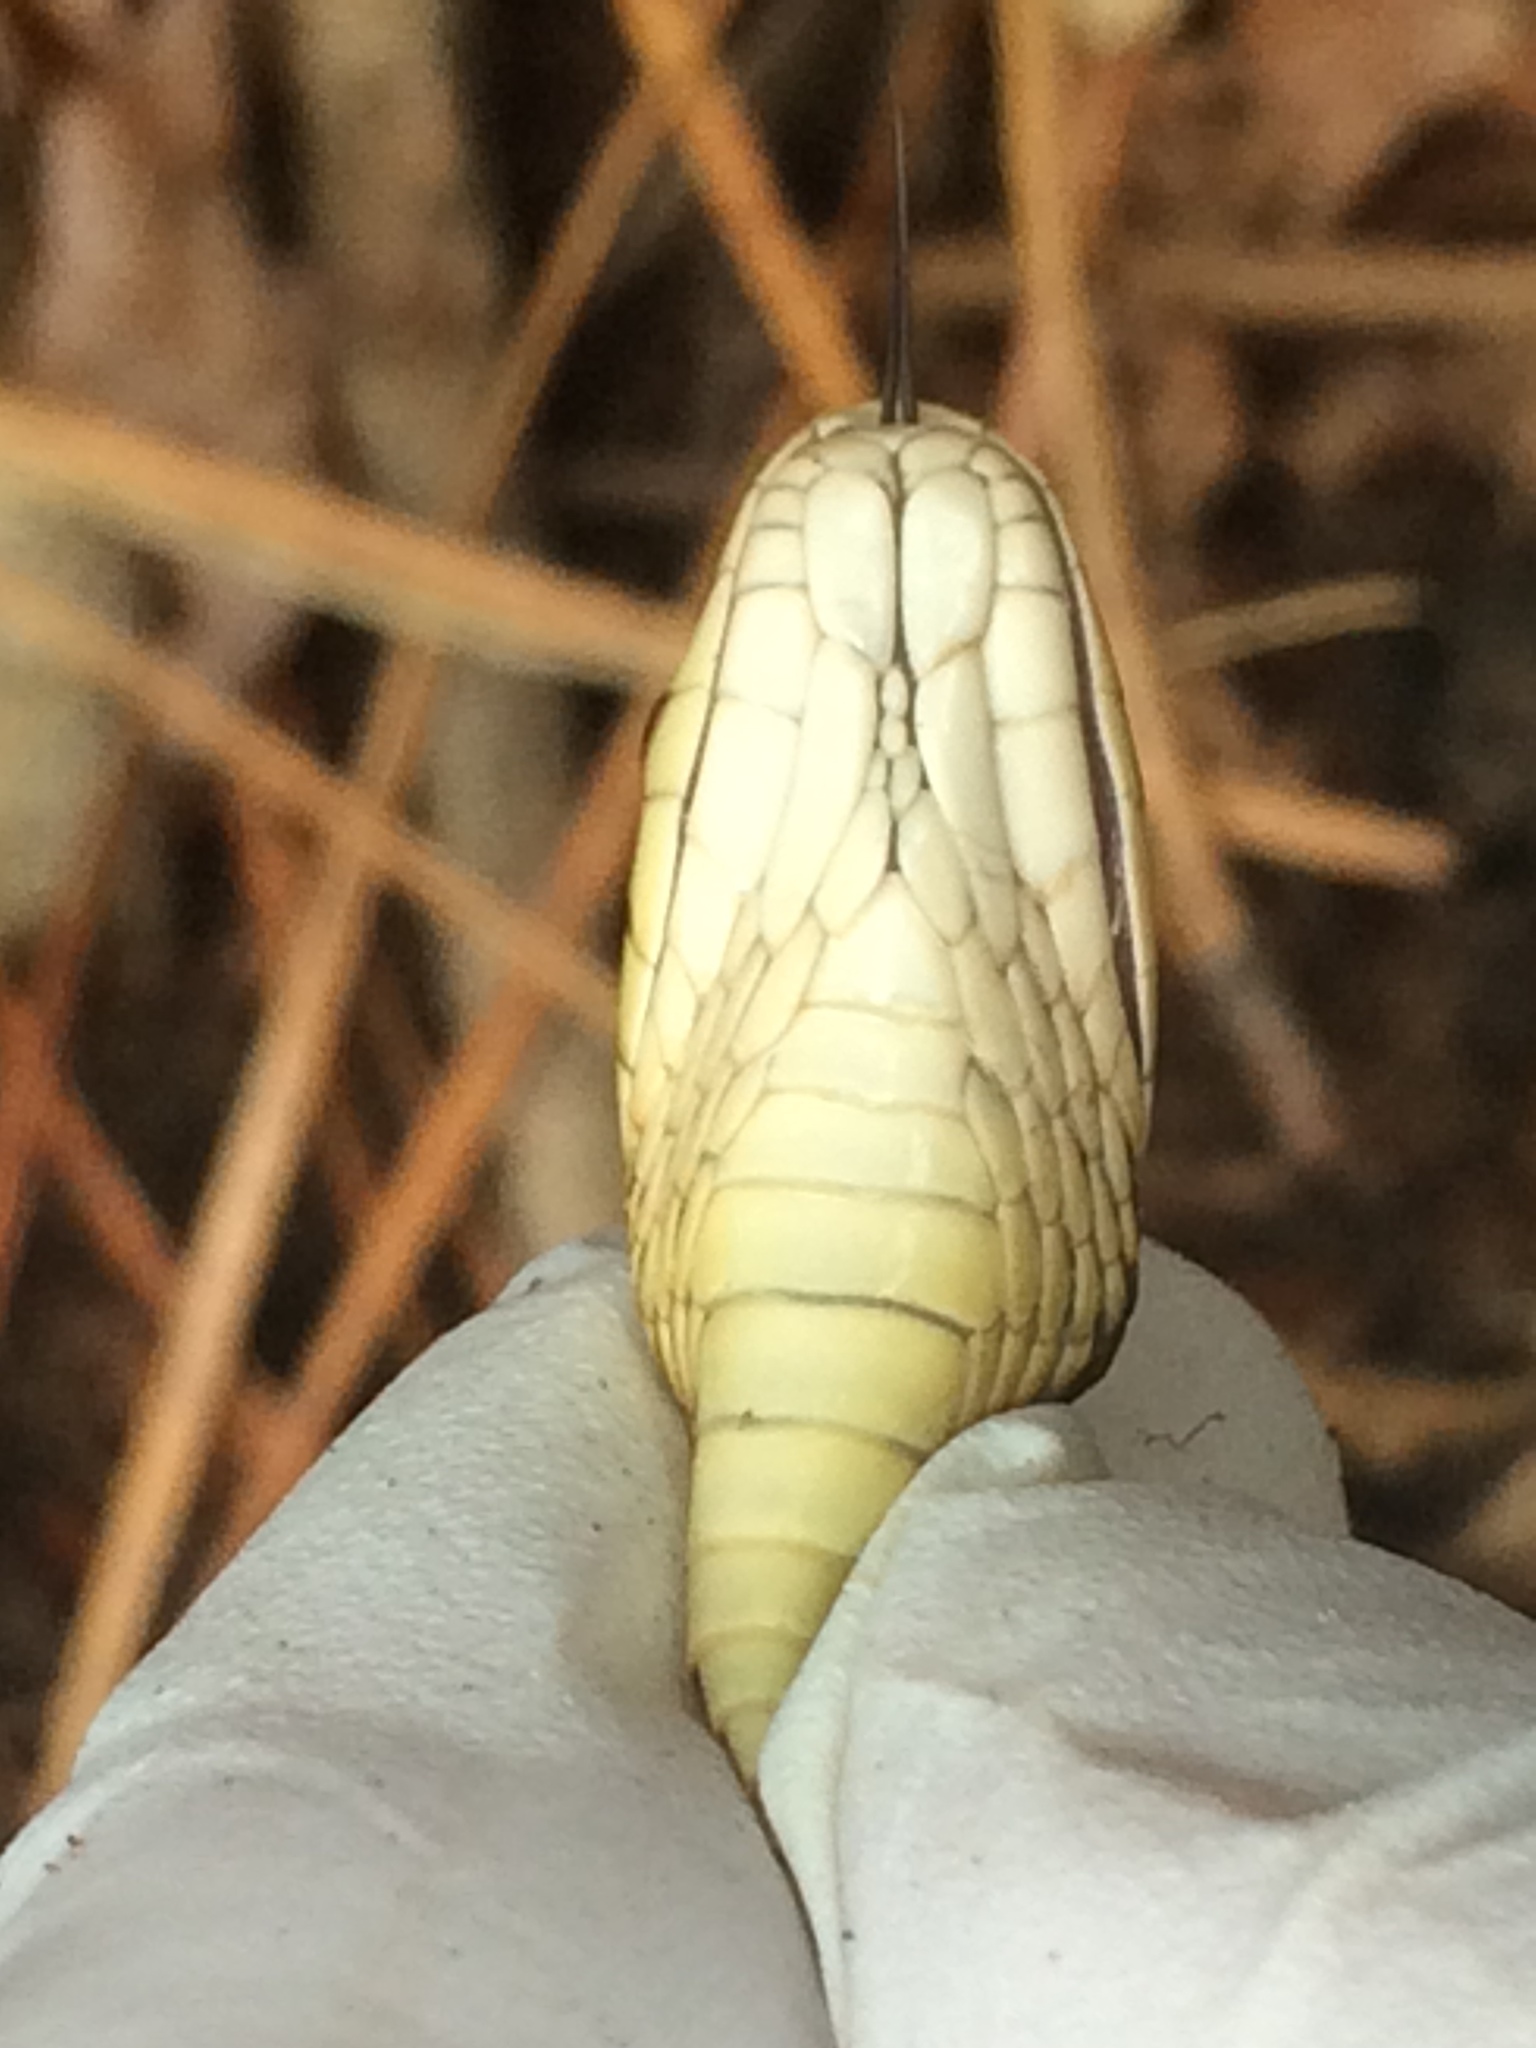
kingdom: Animalia
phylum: Chordata
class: Squamata
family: Colubridae
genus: Thamnophis
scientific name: Thamnophis sirtalis
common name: Common garter snake
